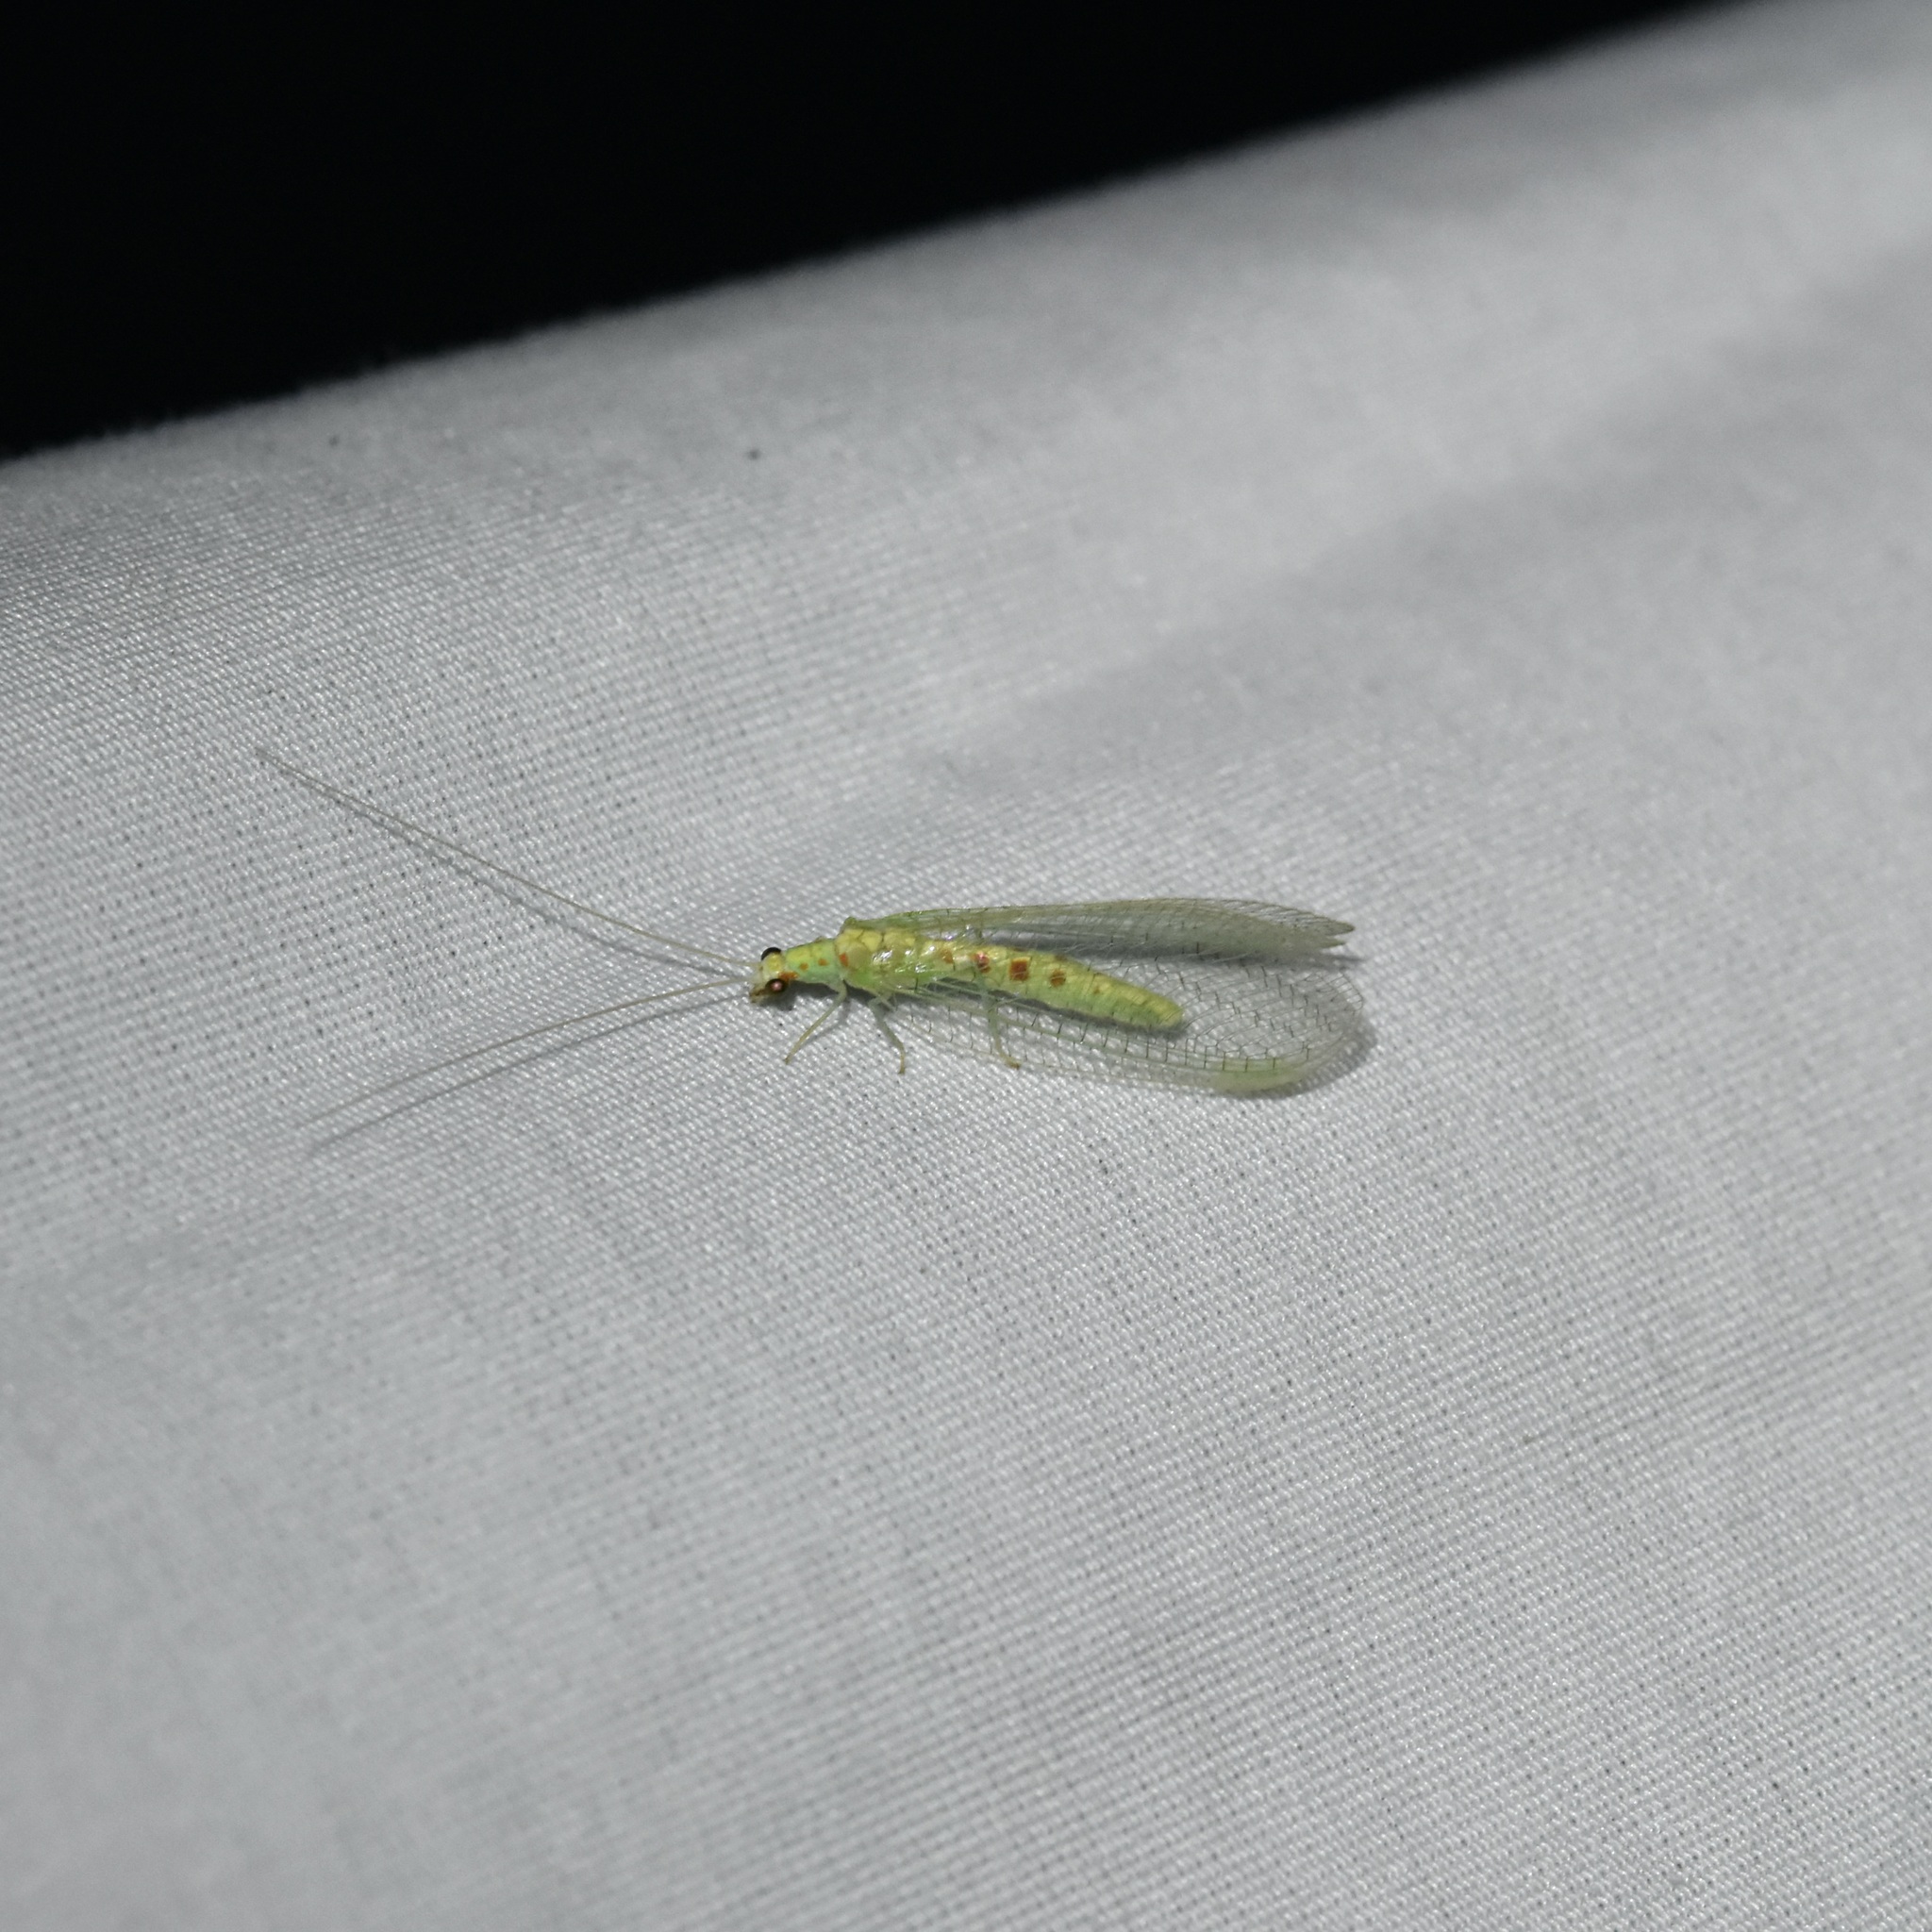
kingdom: Animalia
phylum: Arthropoda
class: Insecta
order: Neuroptera
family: Chrysopidae
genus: Chrysopa
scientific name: Chrysopa quadripunctata
